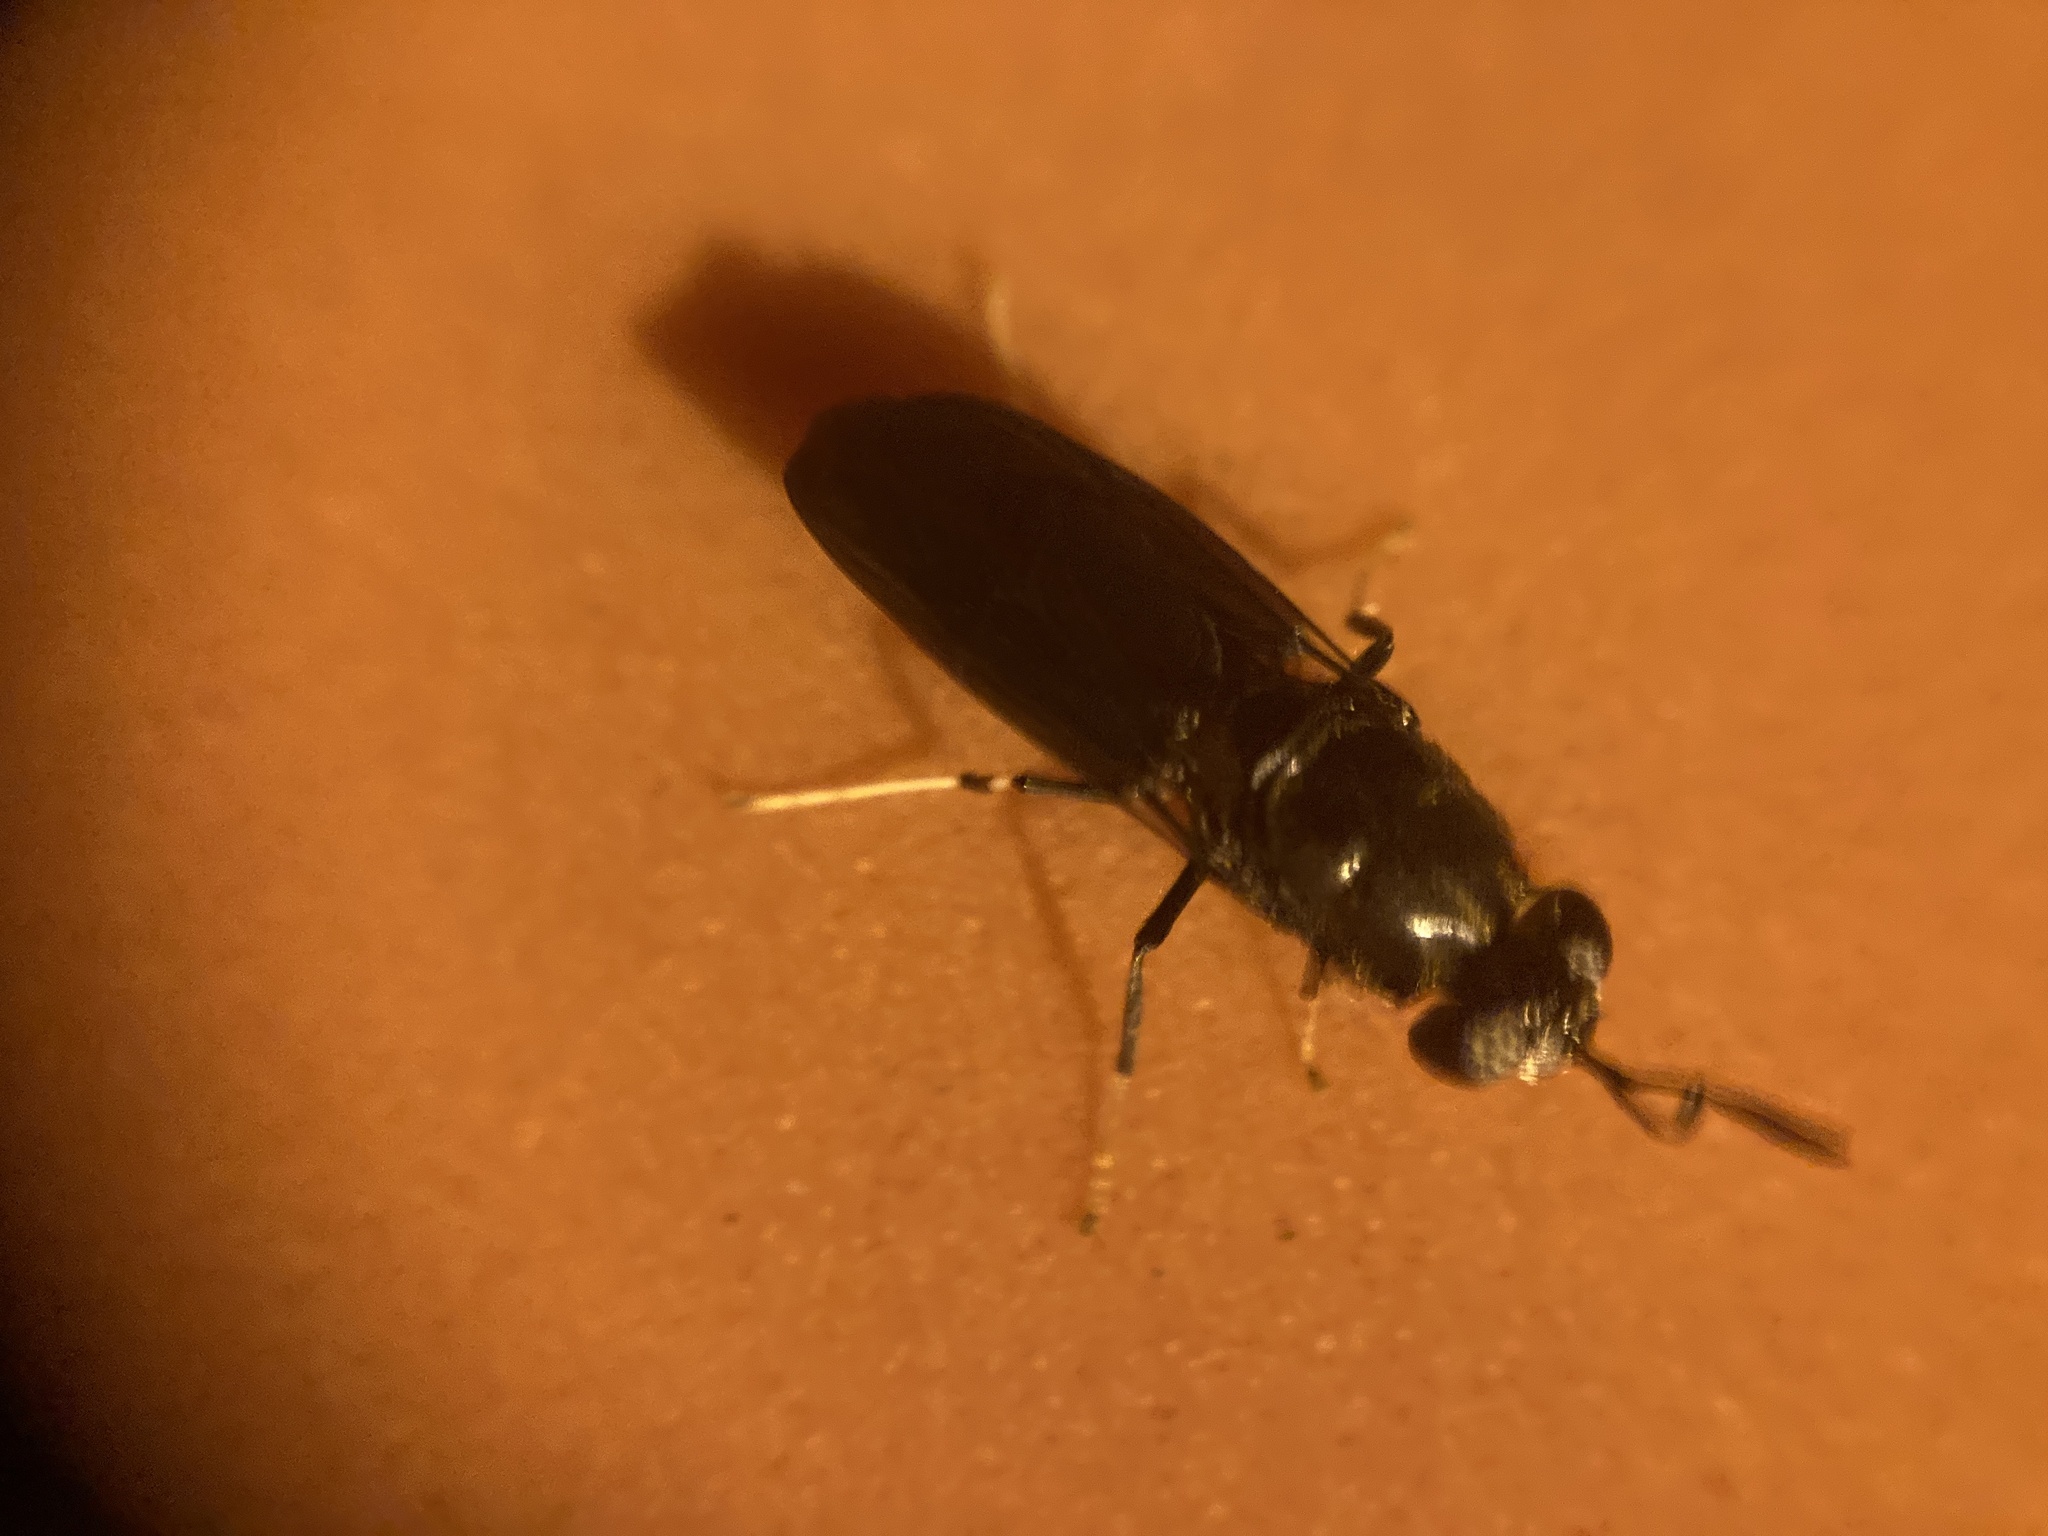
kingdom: Animalia
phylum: Arthropoda
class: Insecta
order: Diptera
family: Stratiomyidae
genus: Hermetia
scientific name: Hermetia illucens
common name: Black soldier fly
